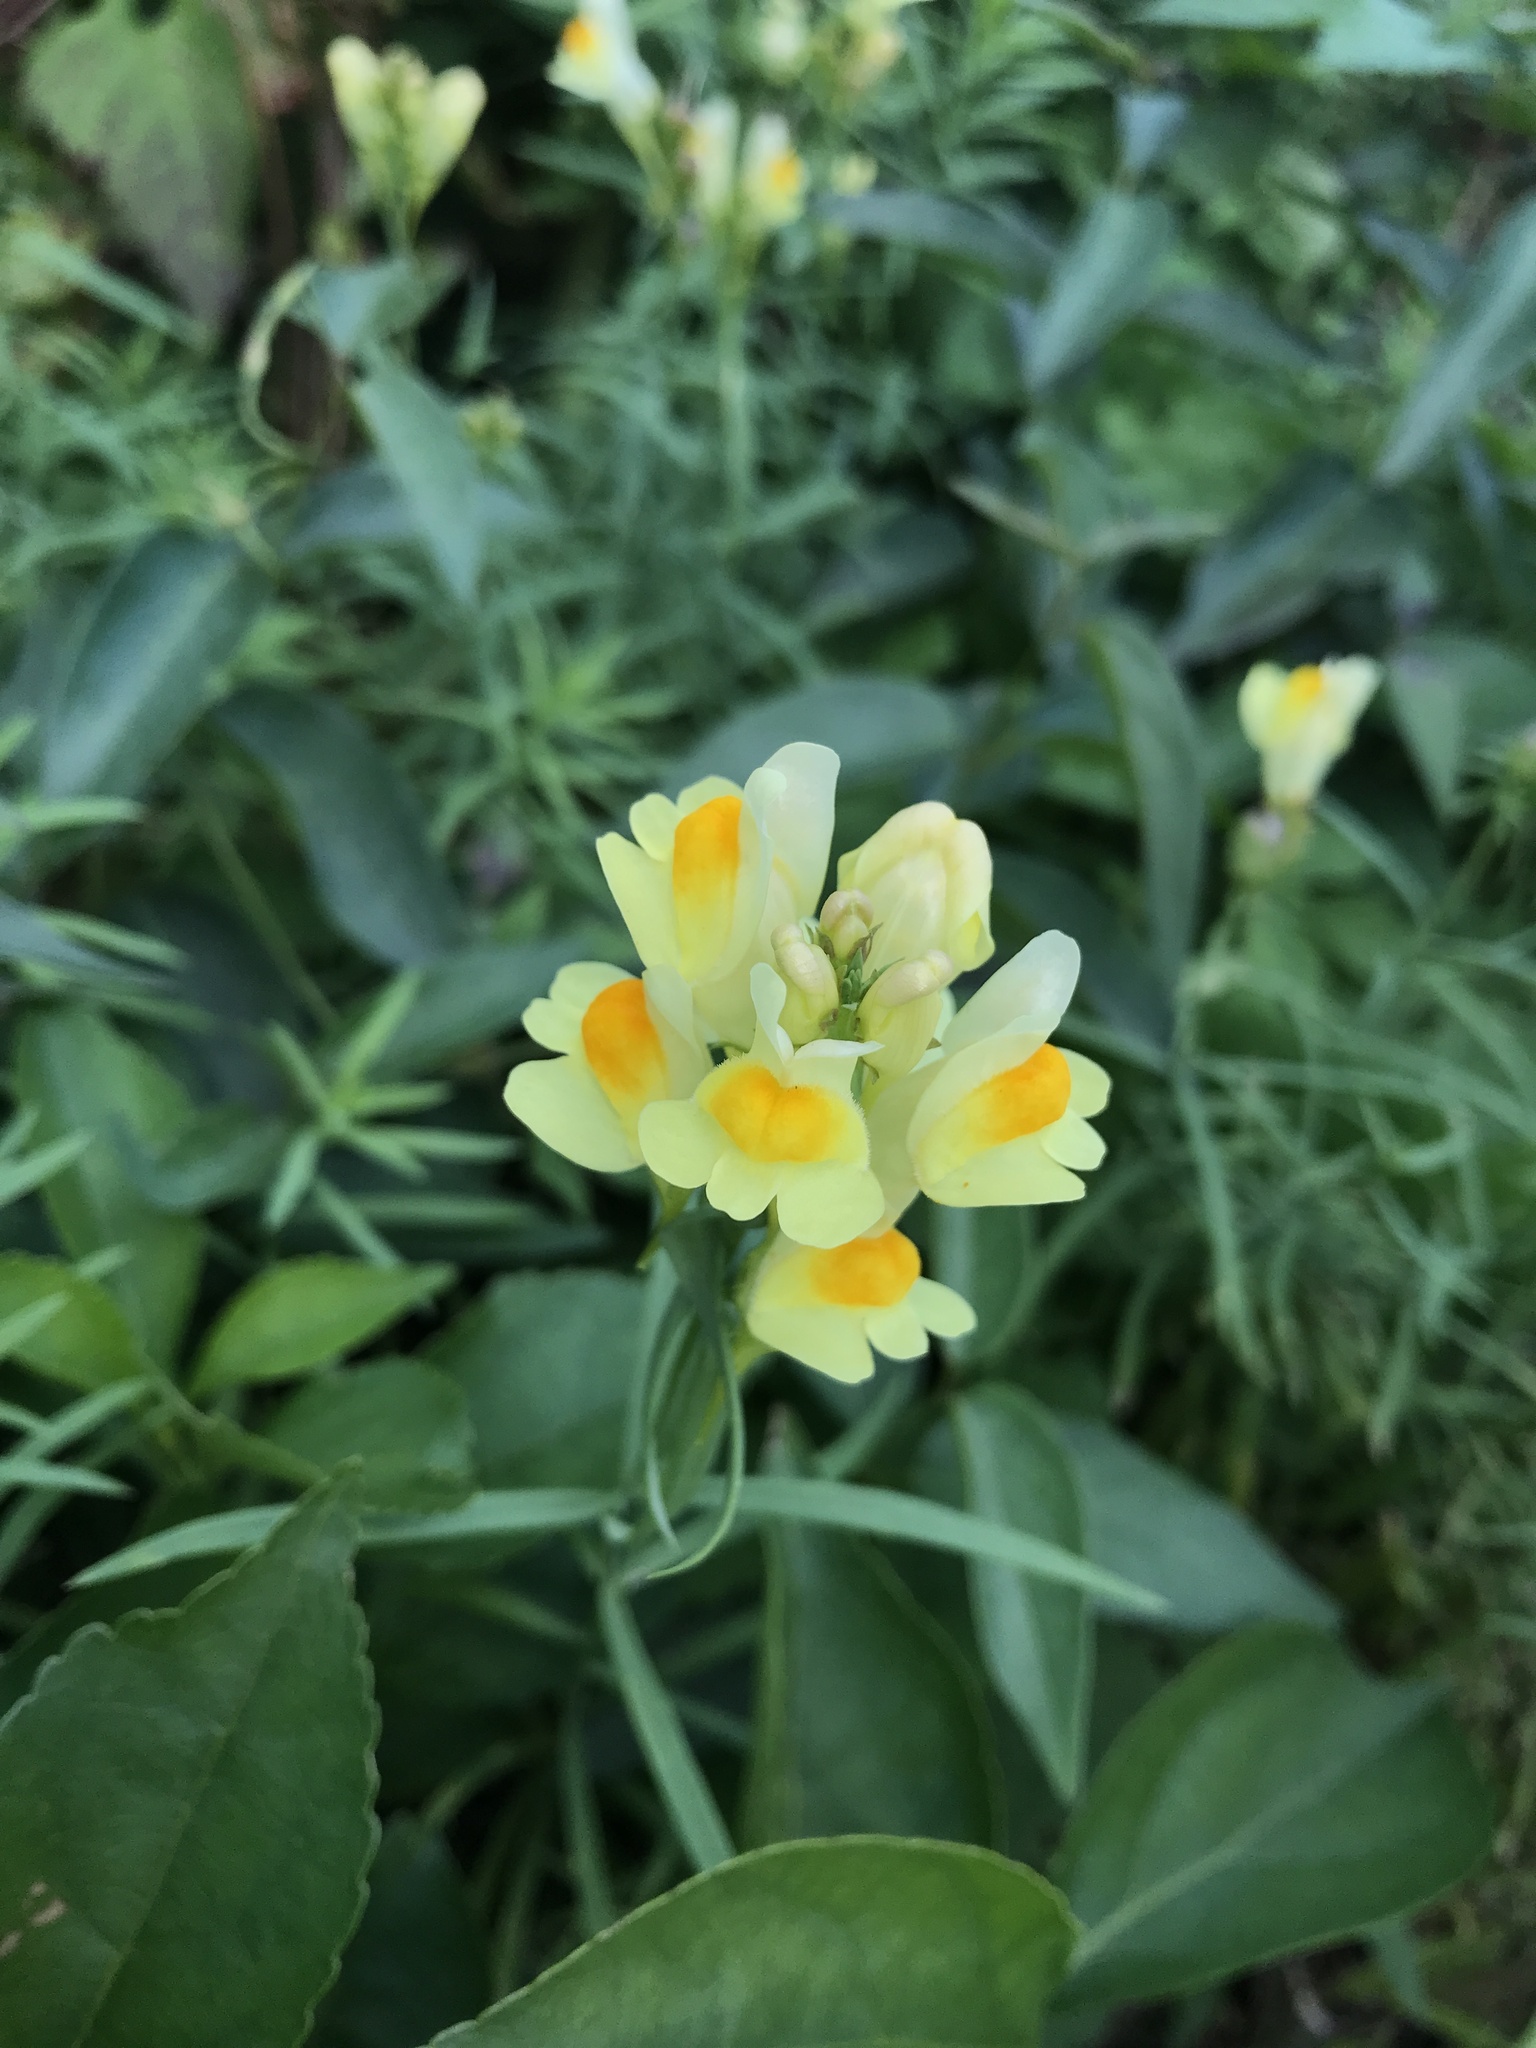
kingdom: Plantae
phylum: Tracheophyta
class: Magnoliopsida
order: Lamiales
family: Plantaginaceae
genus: Linaria
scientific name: Linaria vulgaris
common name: Butter and eggs
